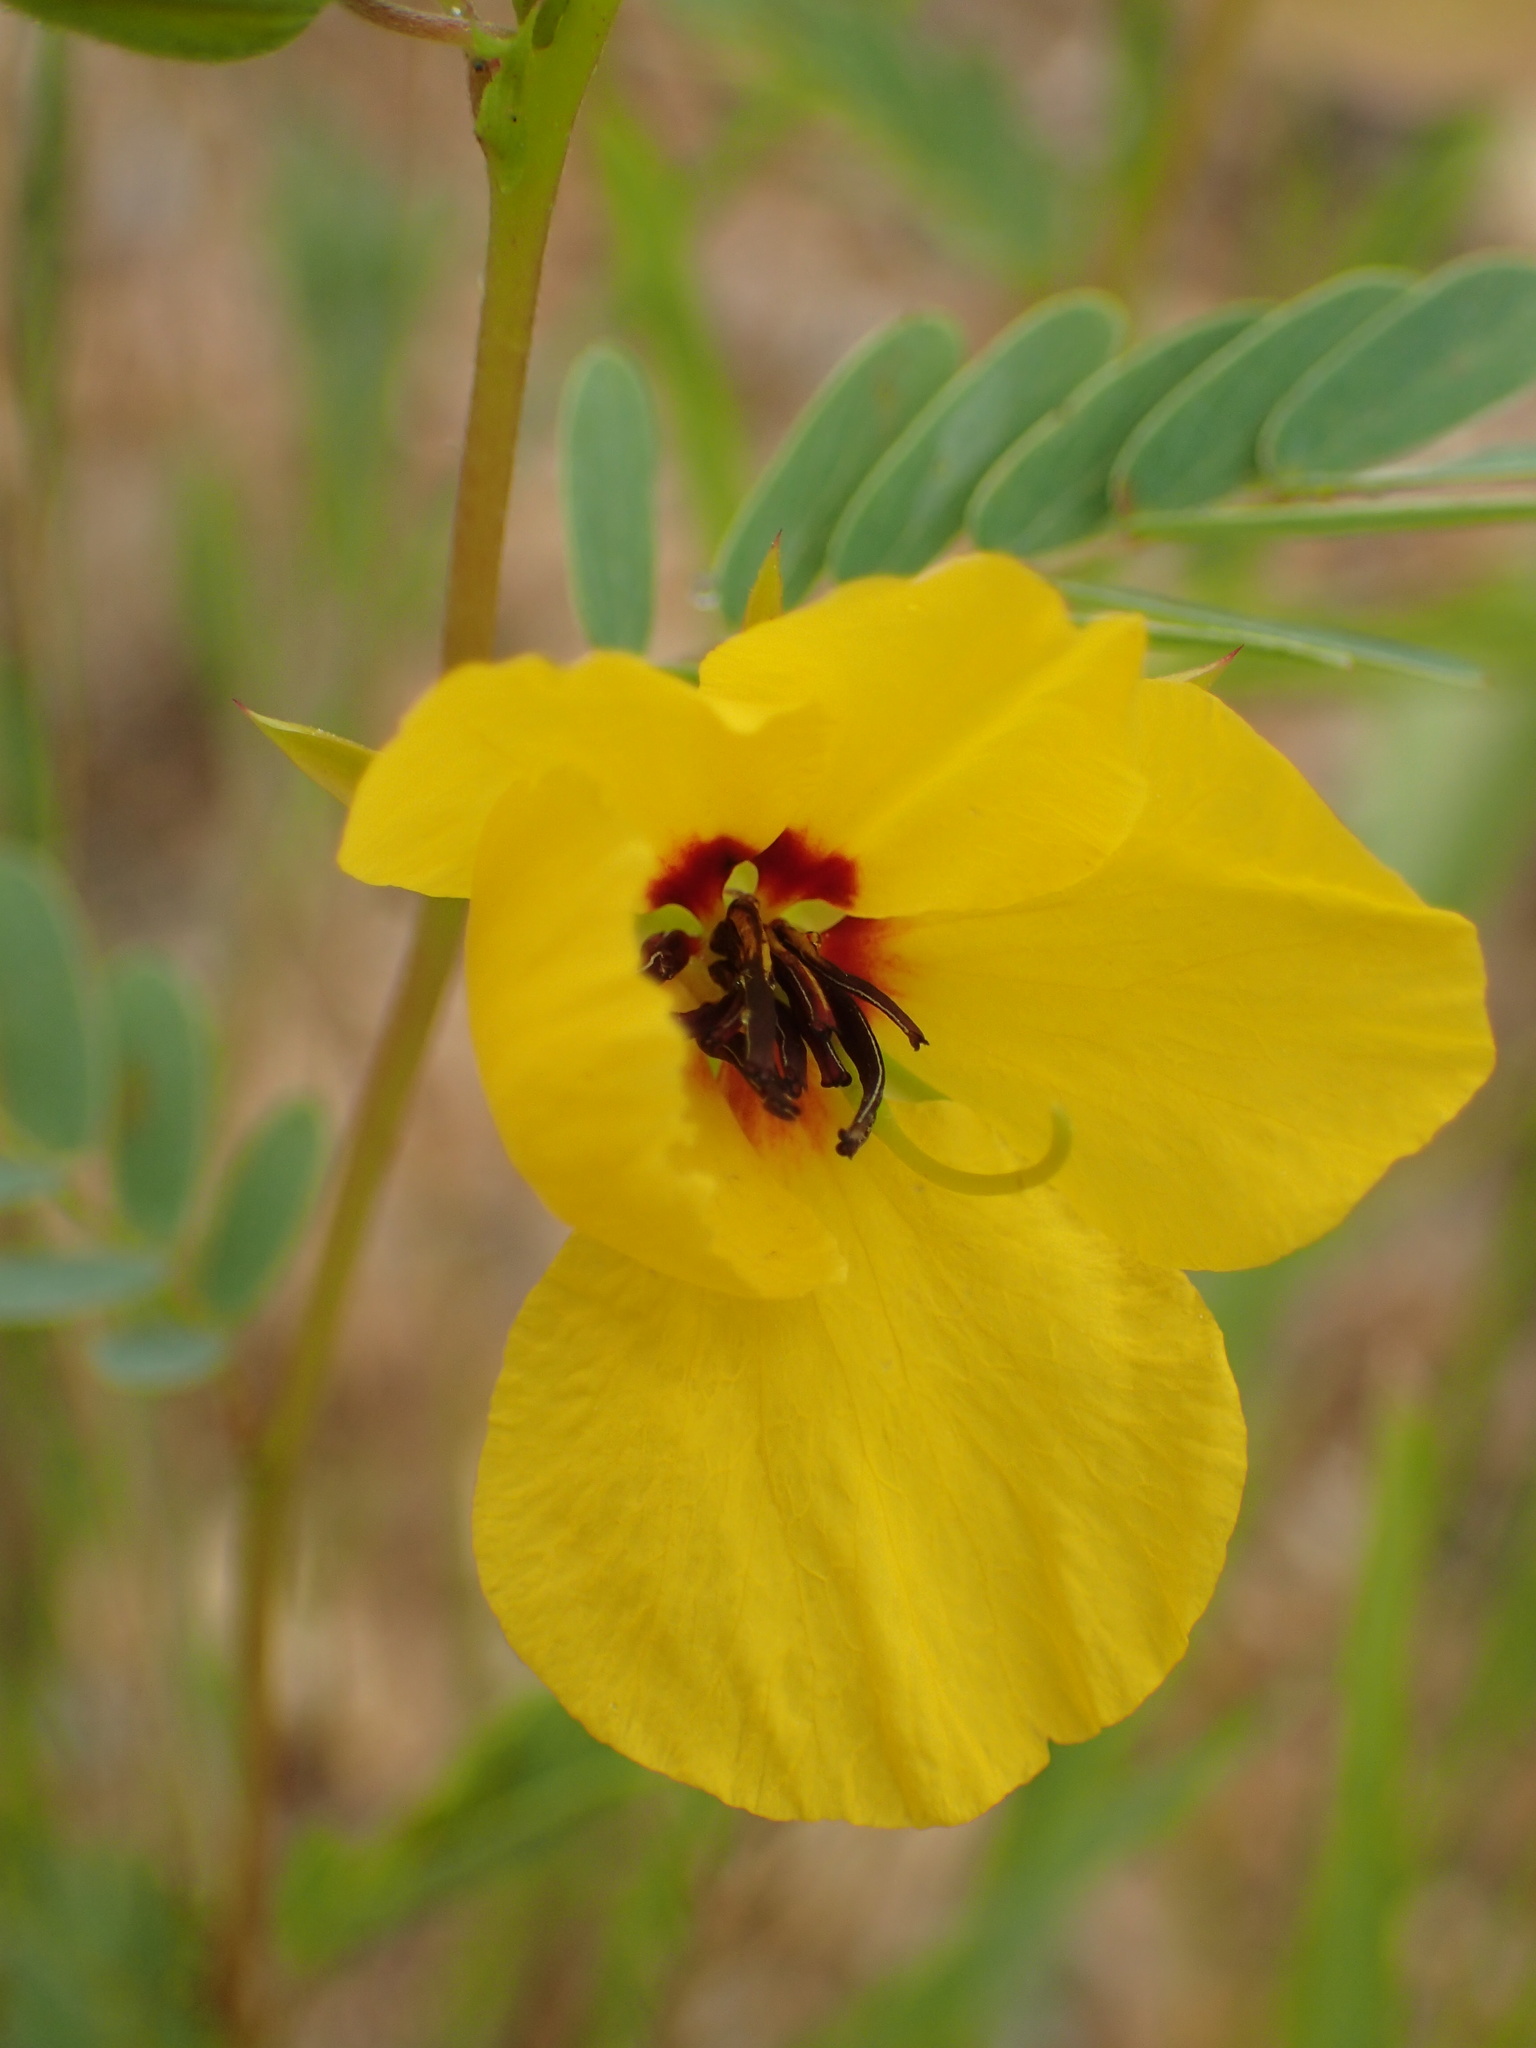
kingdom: Plantae
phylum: Tracheophyta
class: Magnoliopsida
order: Fabales
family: Fabaceae
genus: Chamaecrista
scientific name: Chamaecrista fasciculata
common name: Golden cassia
